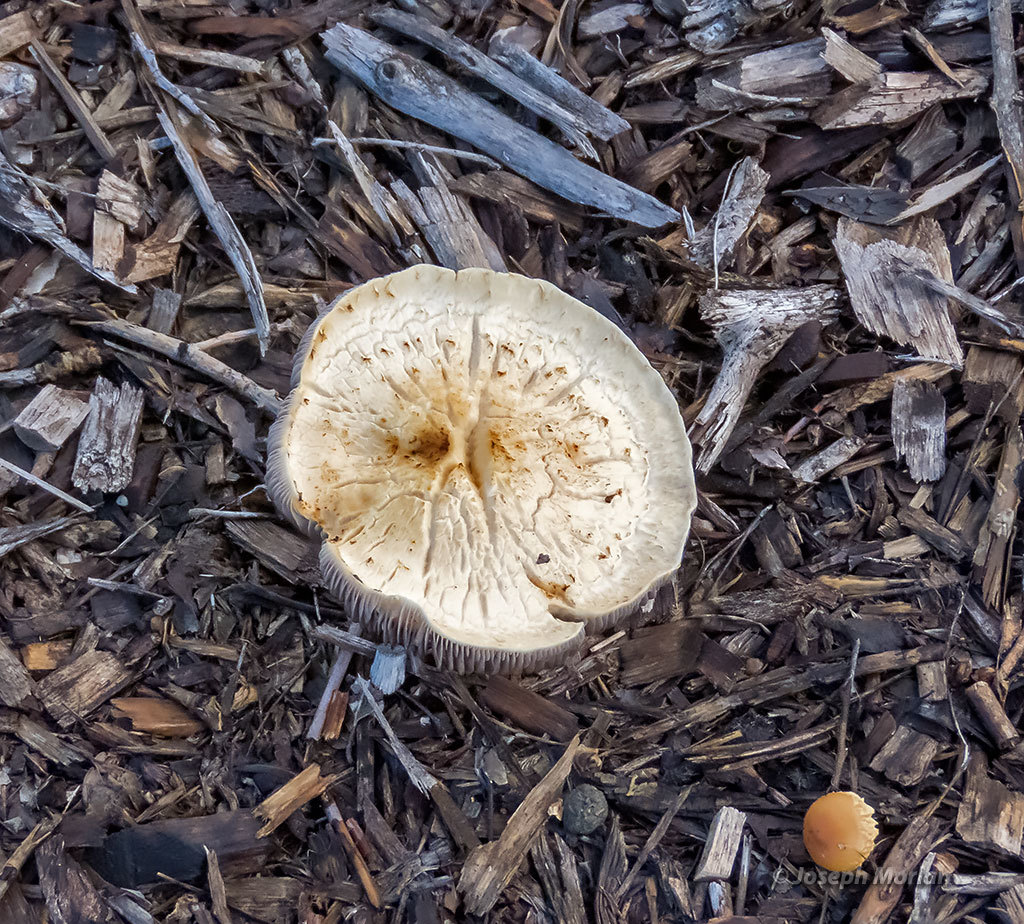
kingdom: Fungi
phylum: Basidiomycota
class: Agaricomycetes
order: Agaricales
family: Strophariaceae
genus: Leratiomyces
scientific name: Leratiomyces percevalii
